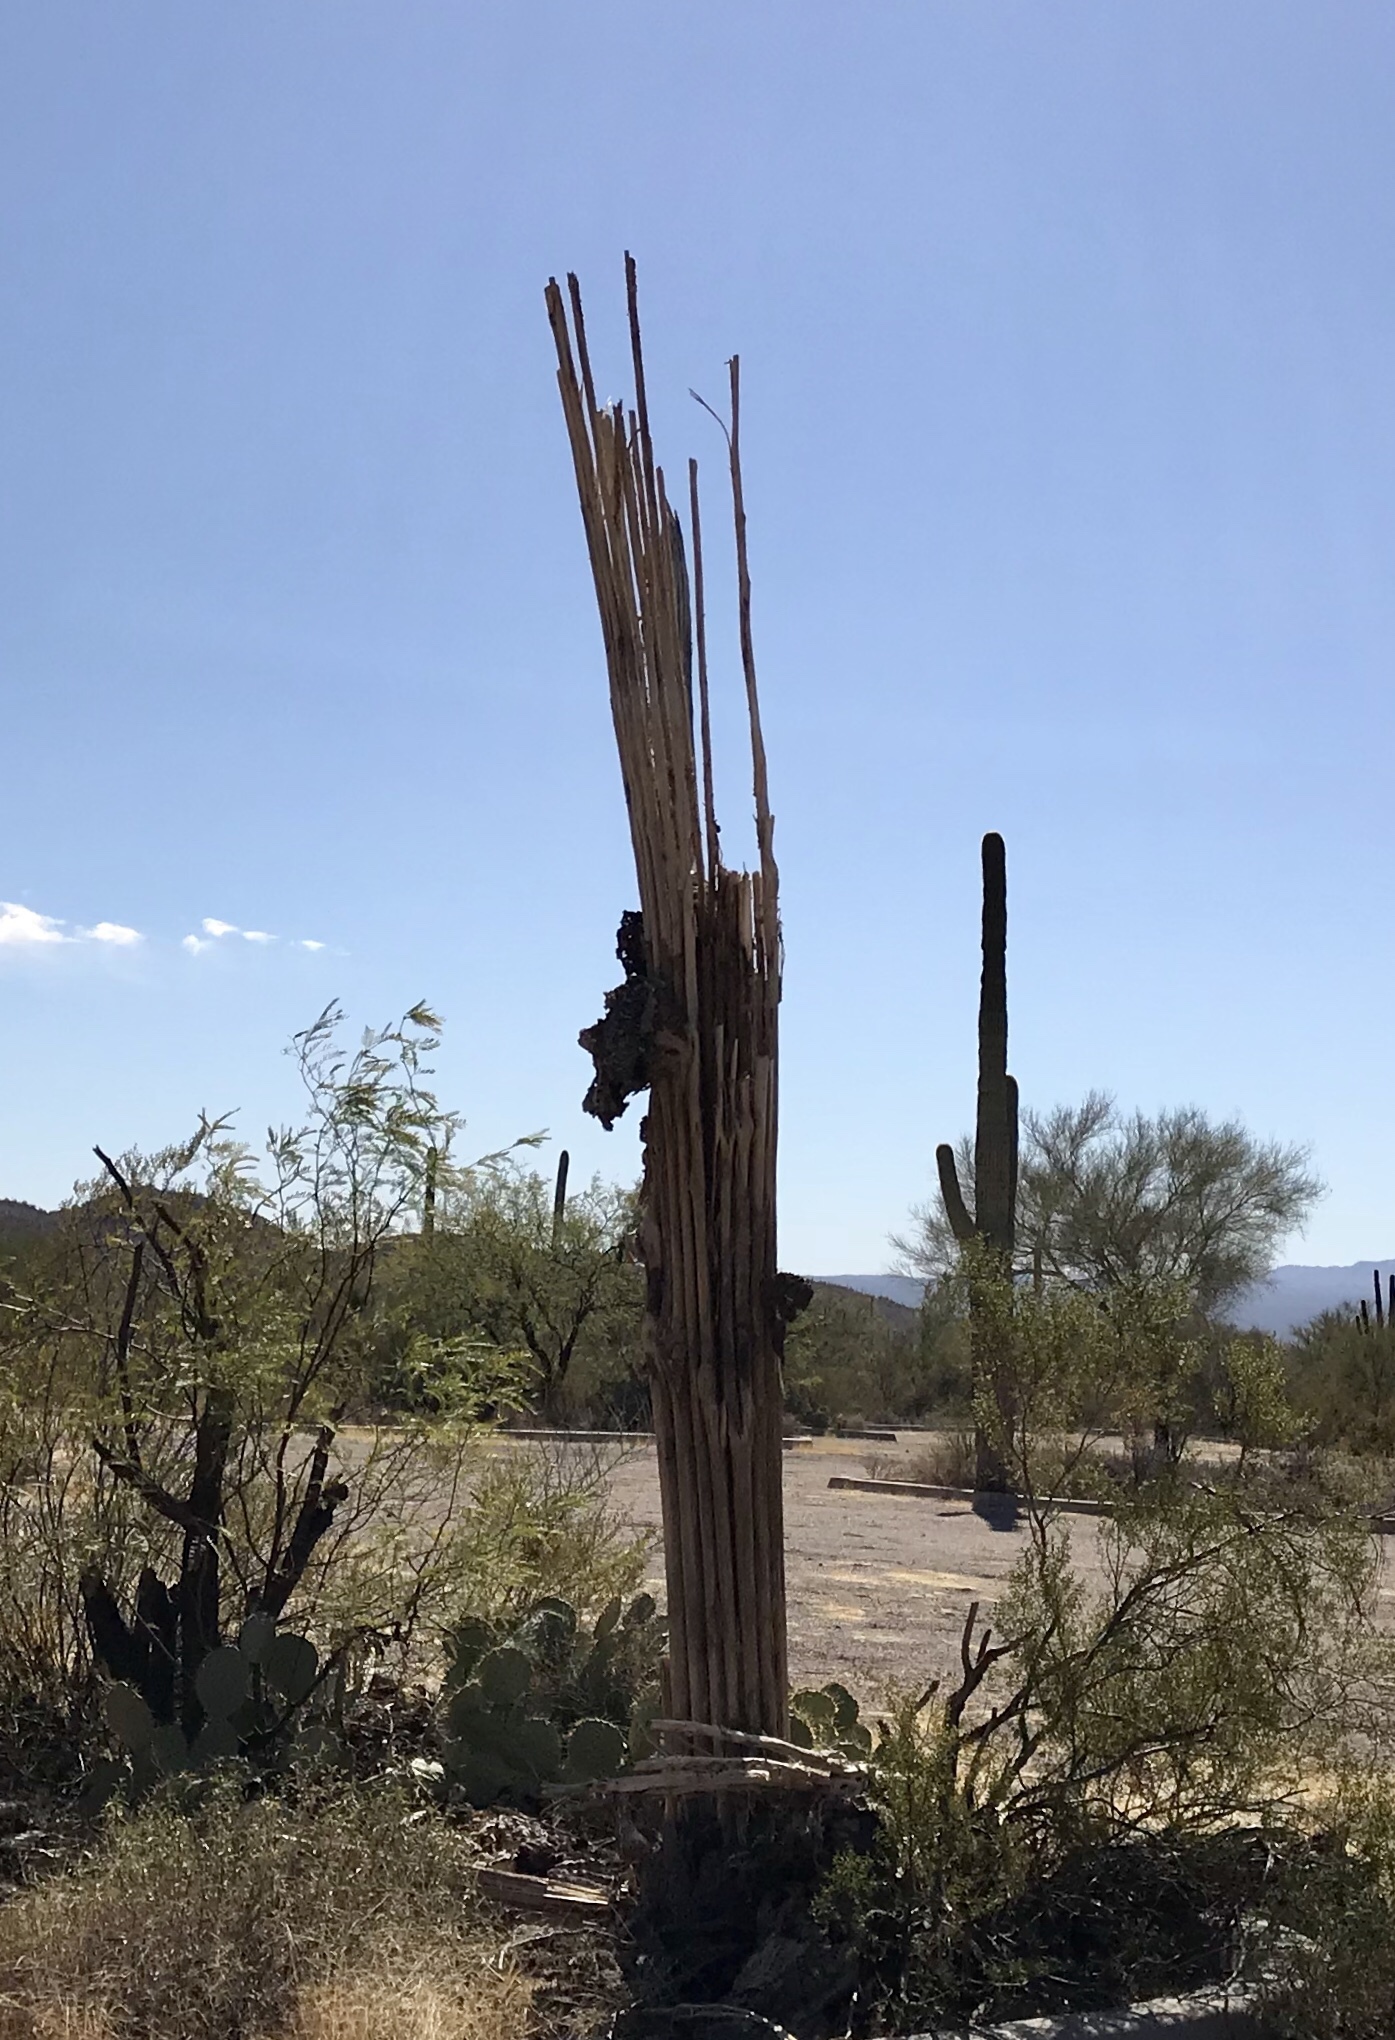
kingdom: Plantae
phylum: Tracheophyta
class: Magnoliopsida
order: Caryophyllales
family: Cactaceae
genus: Carnegiea
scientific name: Carnegiea gigantea
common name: Saguaro
